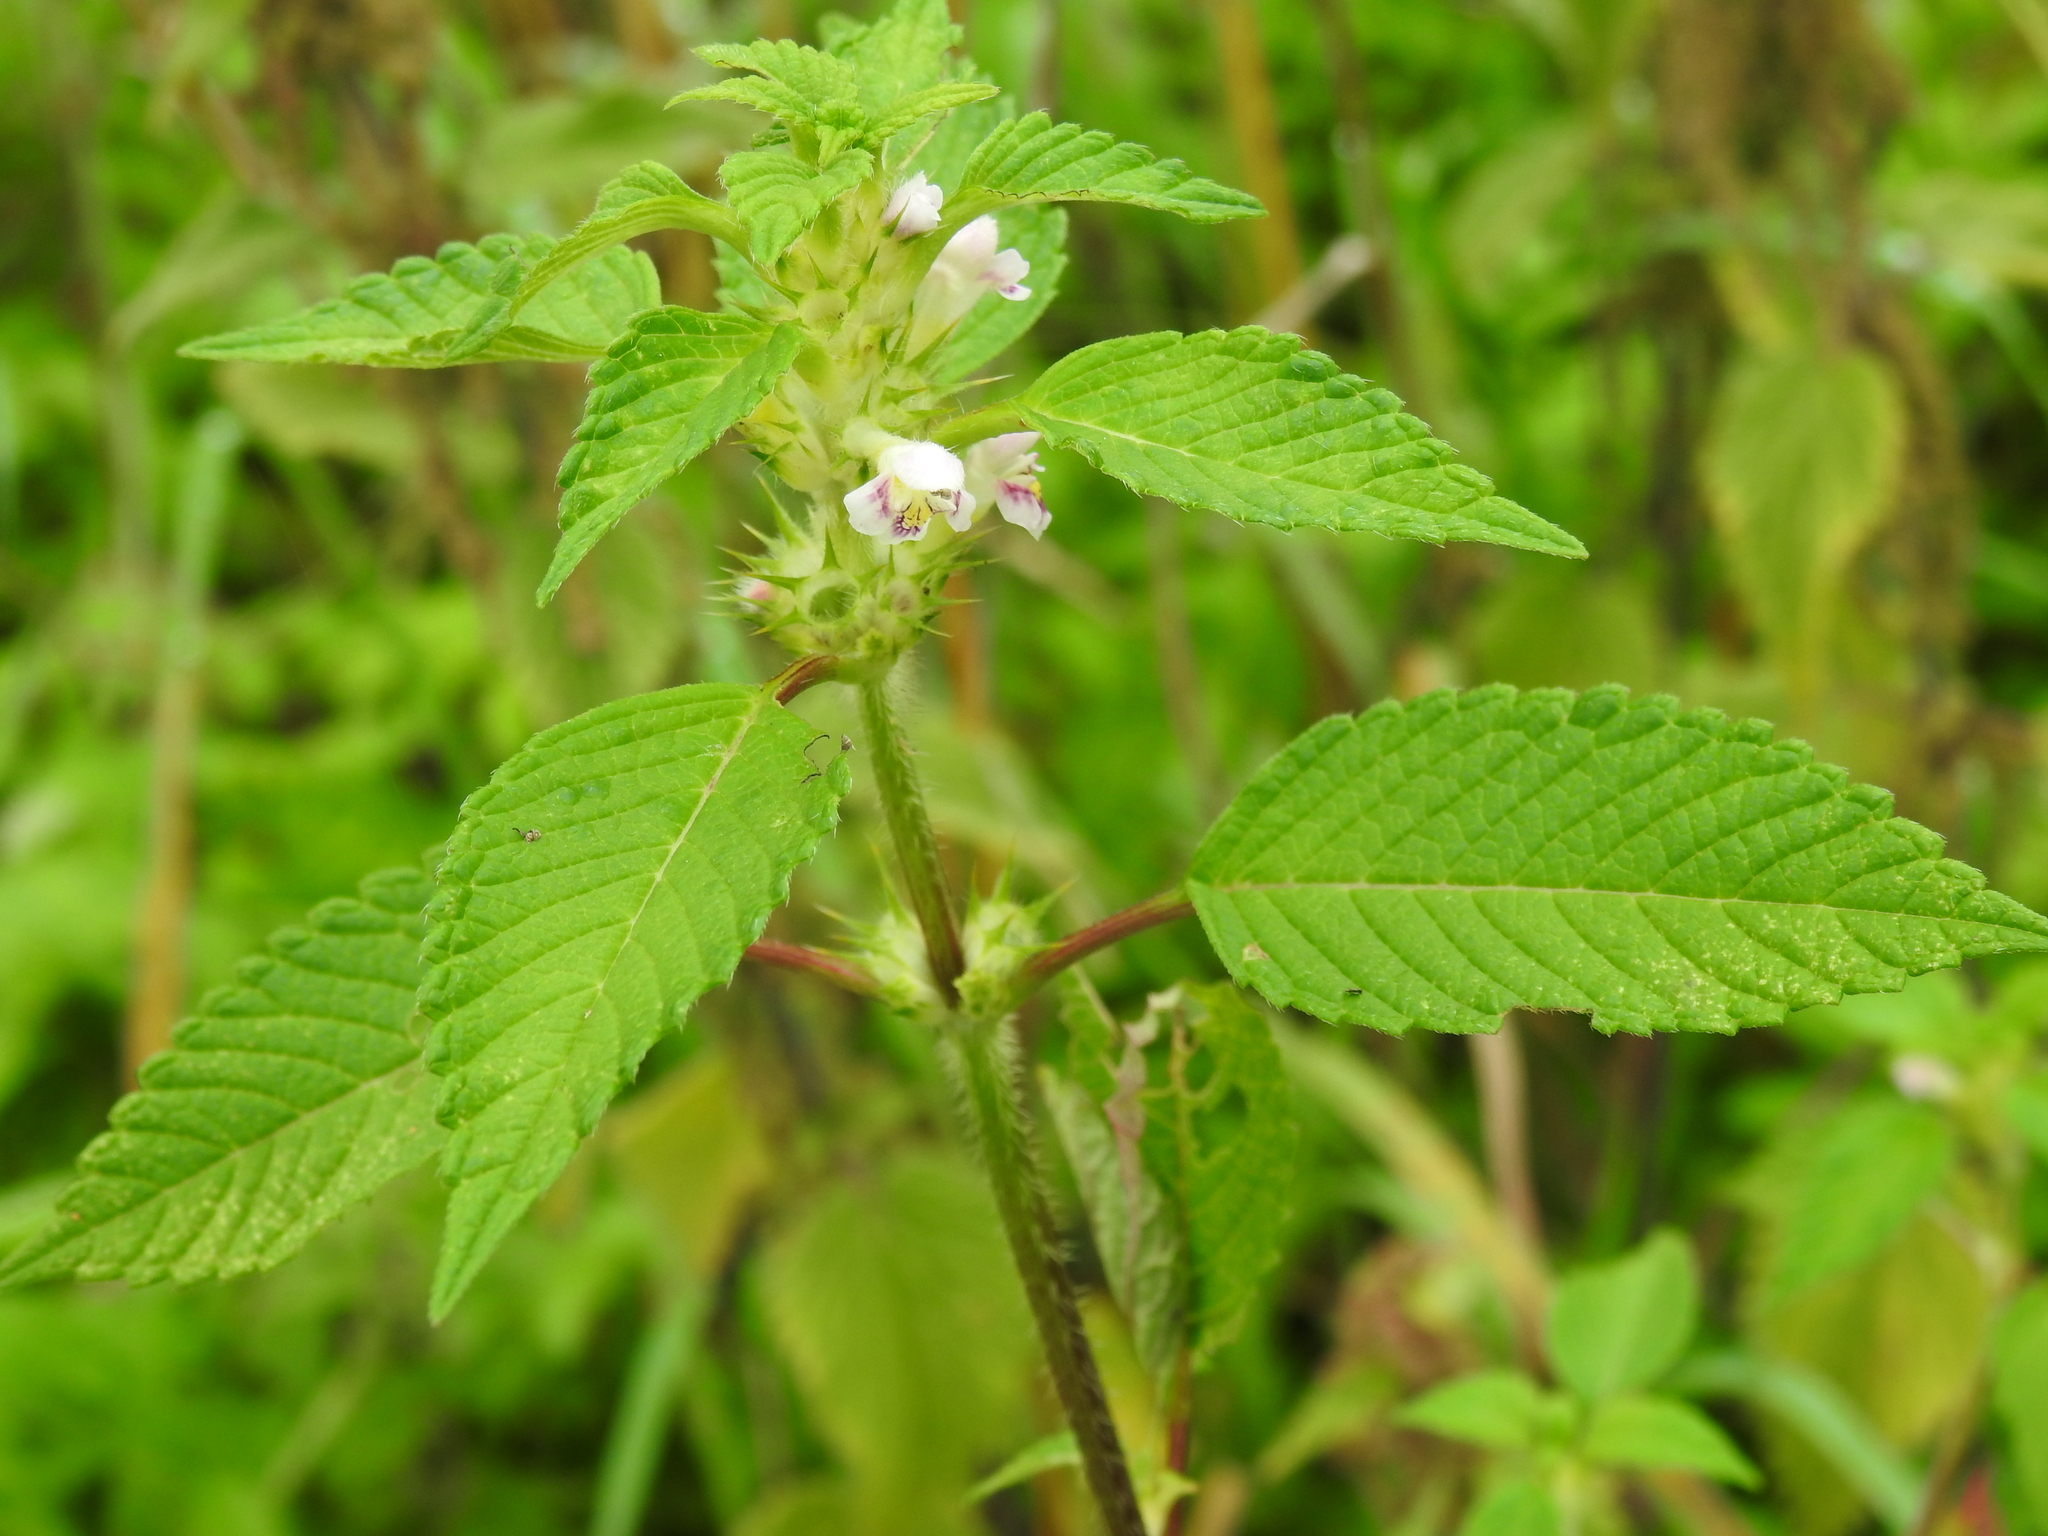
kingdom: Plantae
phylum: Tracheophyta
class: Magnoliopsida
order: Lamiales
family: Lamiaceae
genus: Galeopsis
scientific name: Galeopsis tetrahit
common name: Common hemp-nettle
